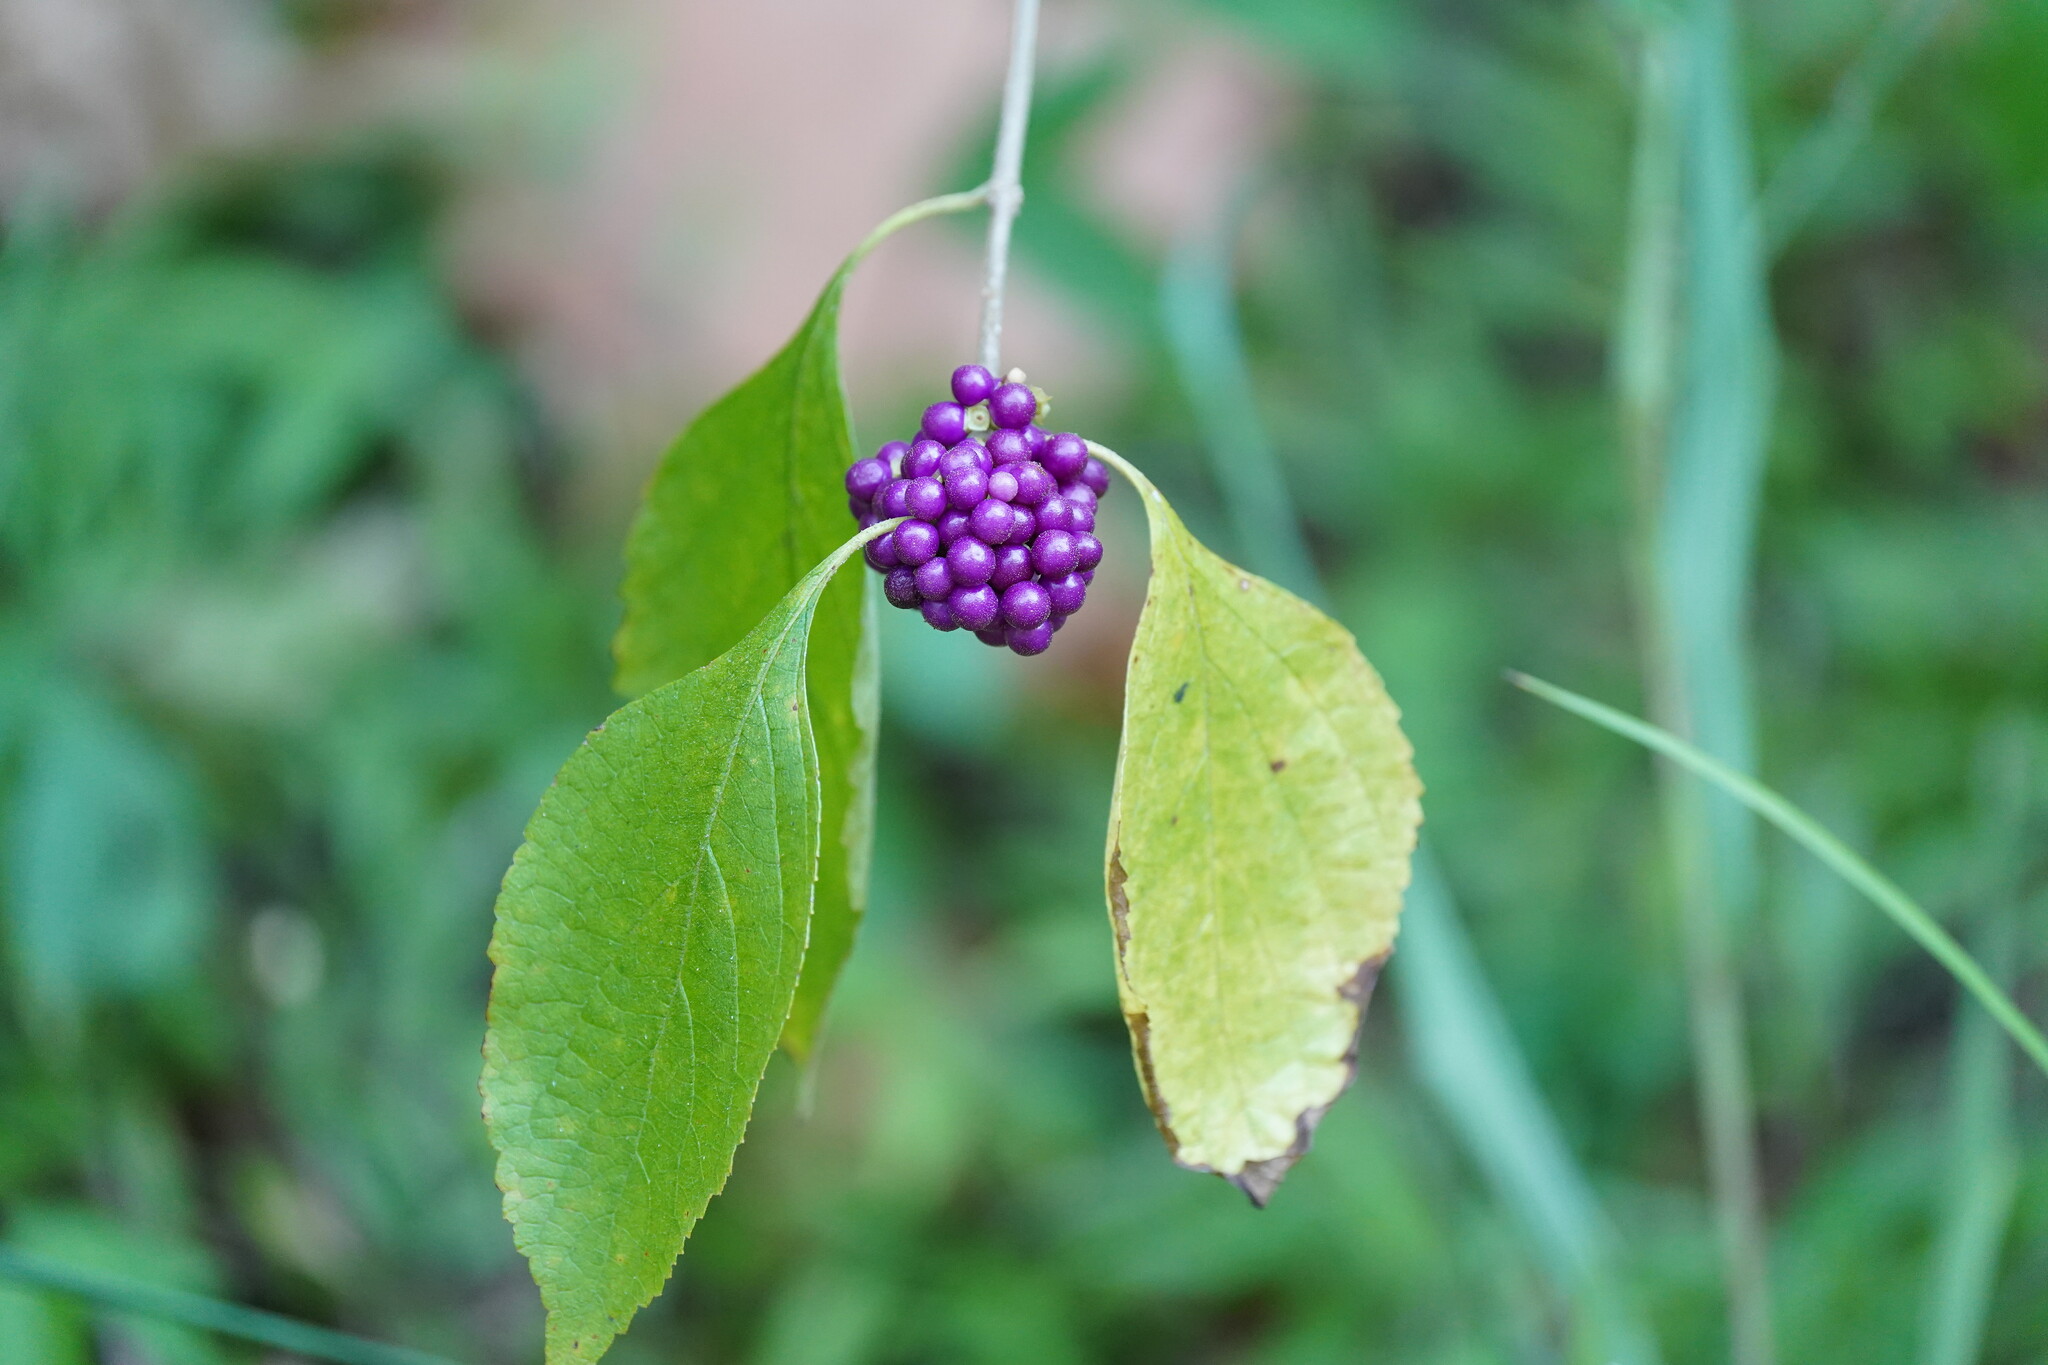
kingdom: Plantae
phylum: Tracheophyta
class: Magnoliopsida
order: Lamiales
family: Lamiaceae
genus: Callicarpa
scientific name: Callicarpa americana
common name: American beautyberry
